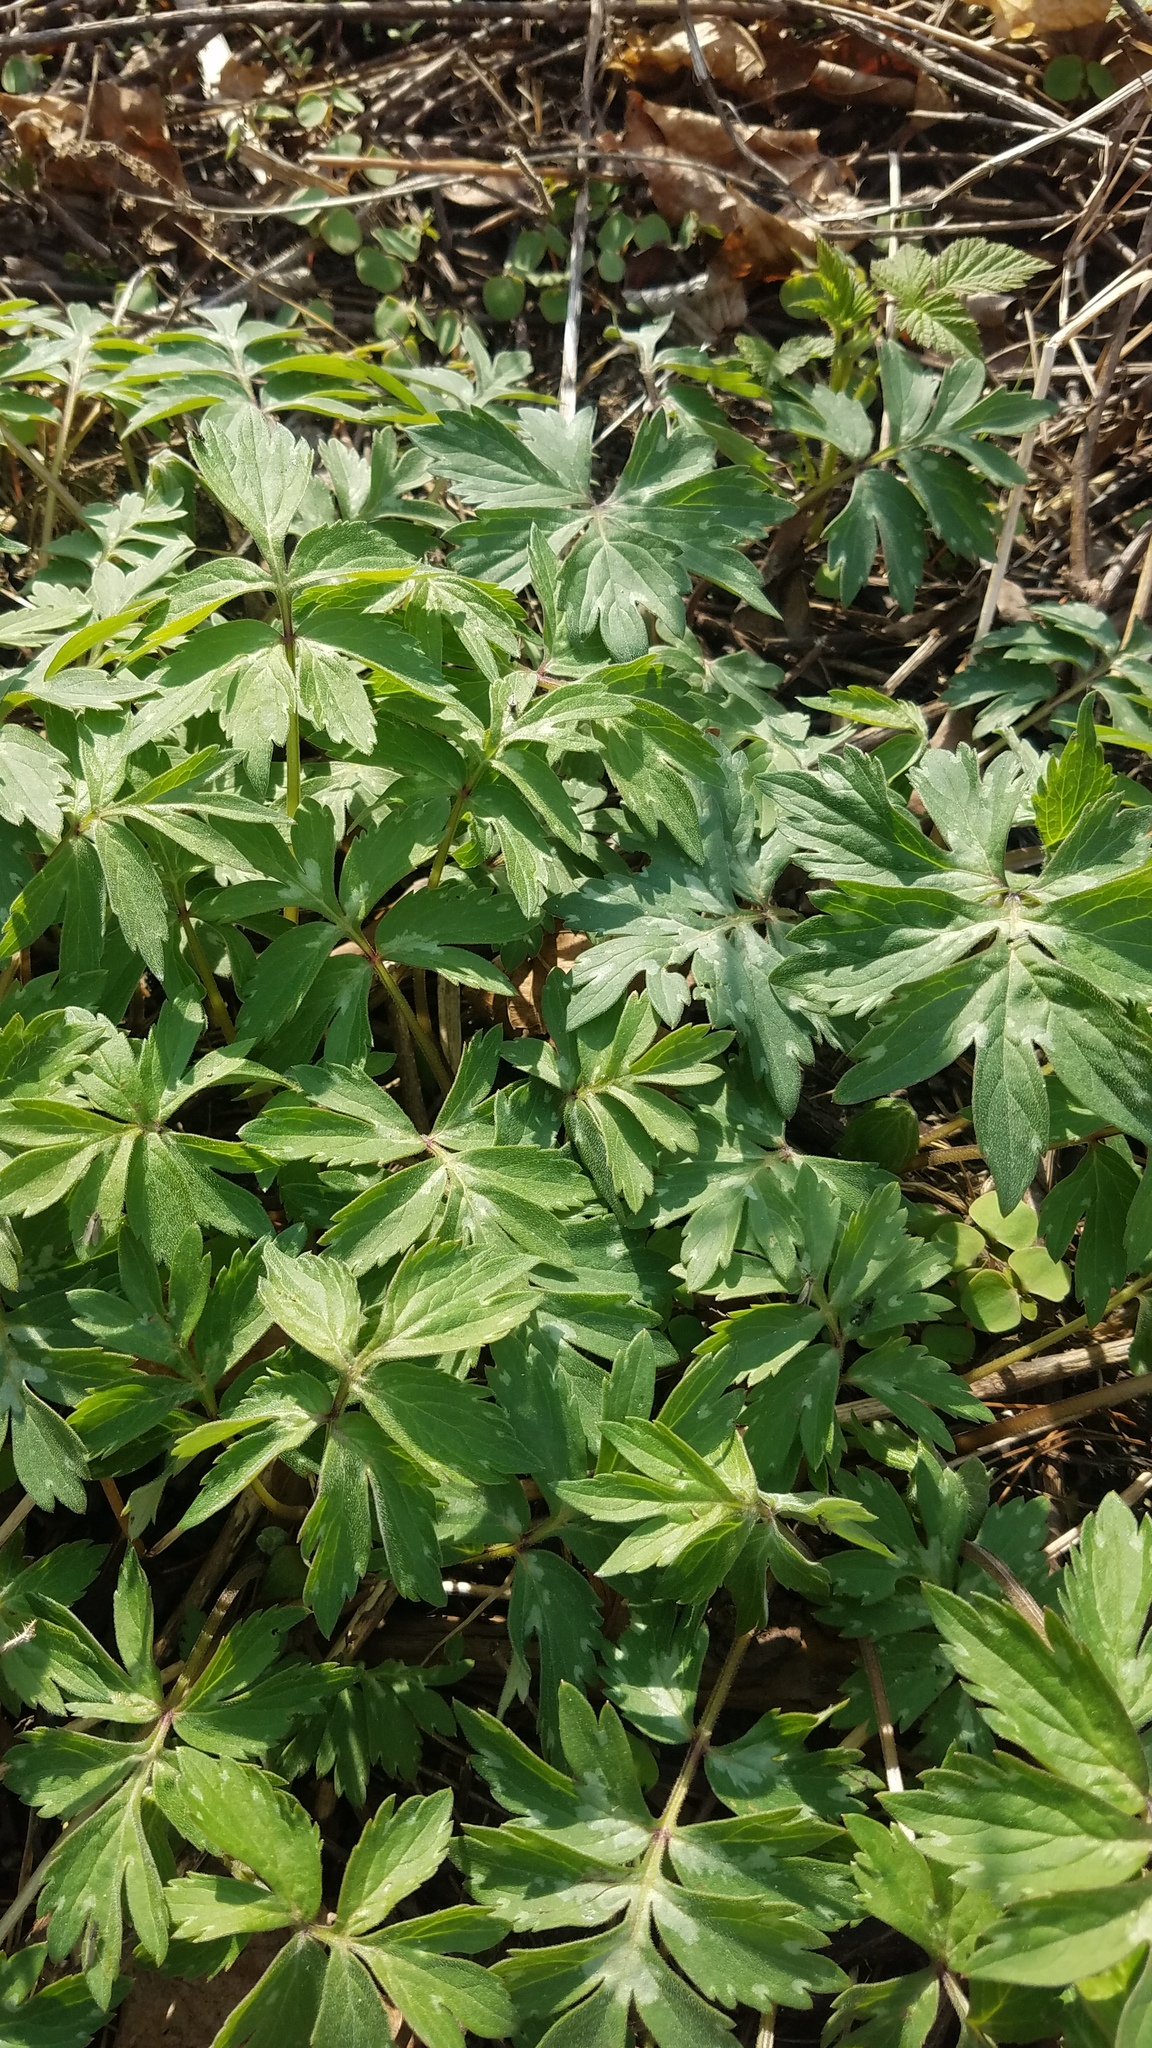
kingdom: Plantae
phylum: Tracheophyta
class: Magnoliopsida
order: Boraginales
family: Hydrophyllaceae
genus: Hydrophyllum
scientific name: Hydrophyllum virginianum
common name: Virginia waterleaf
